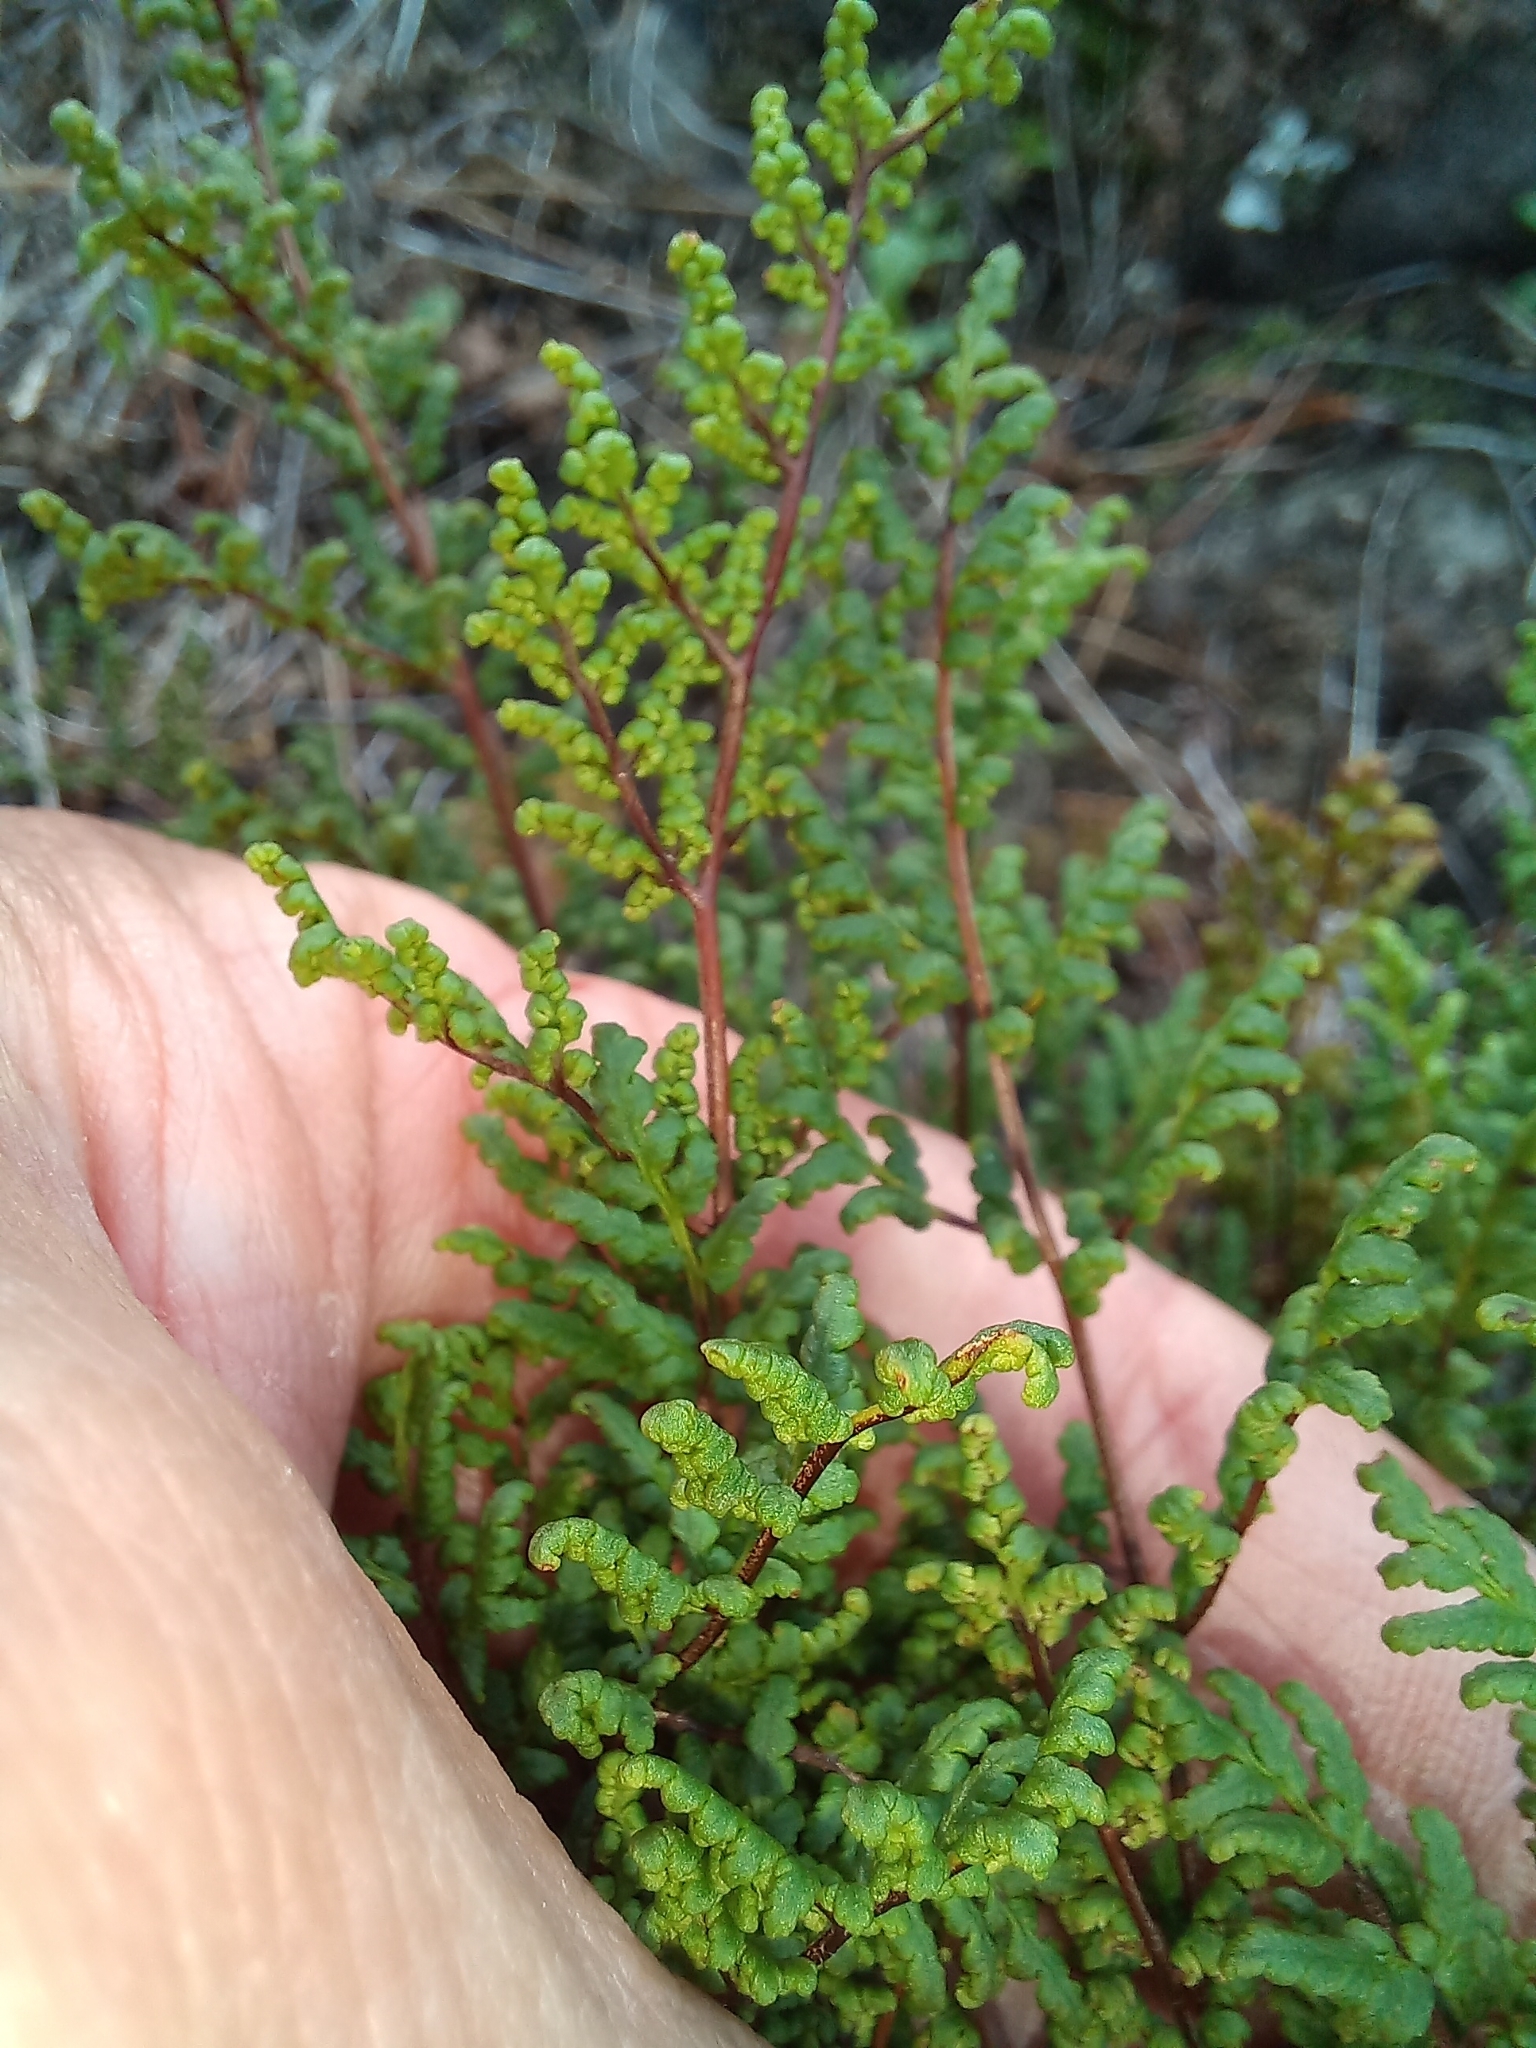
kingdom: Plantae
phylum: Tracheophyta
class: Polypodiopsida
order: Polypodiales
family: Pteridaceae
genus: Cheilanthes
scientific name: Cheilanthes sieberi
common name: Mulga fern
